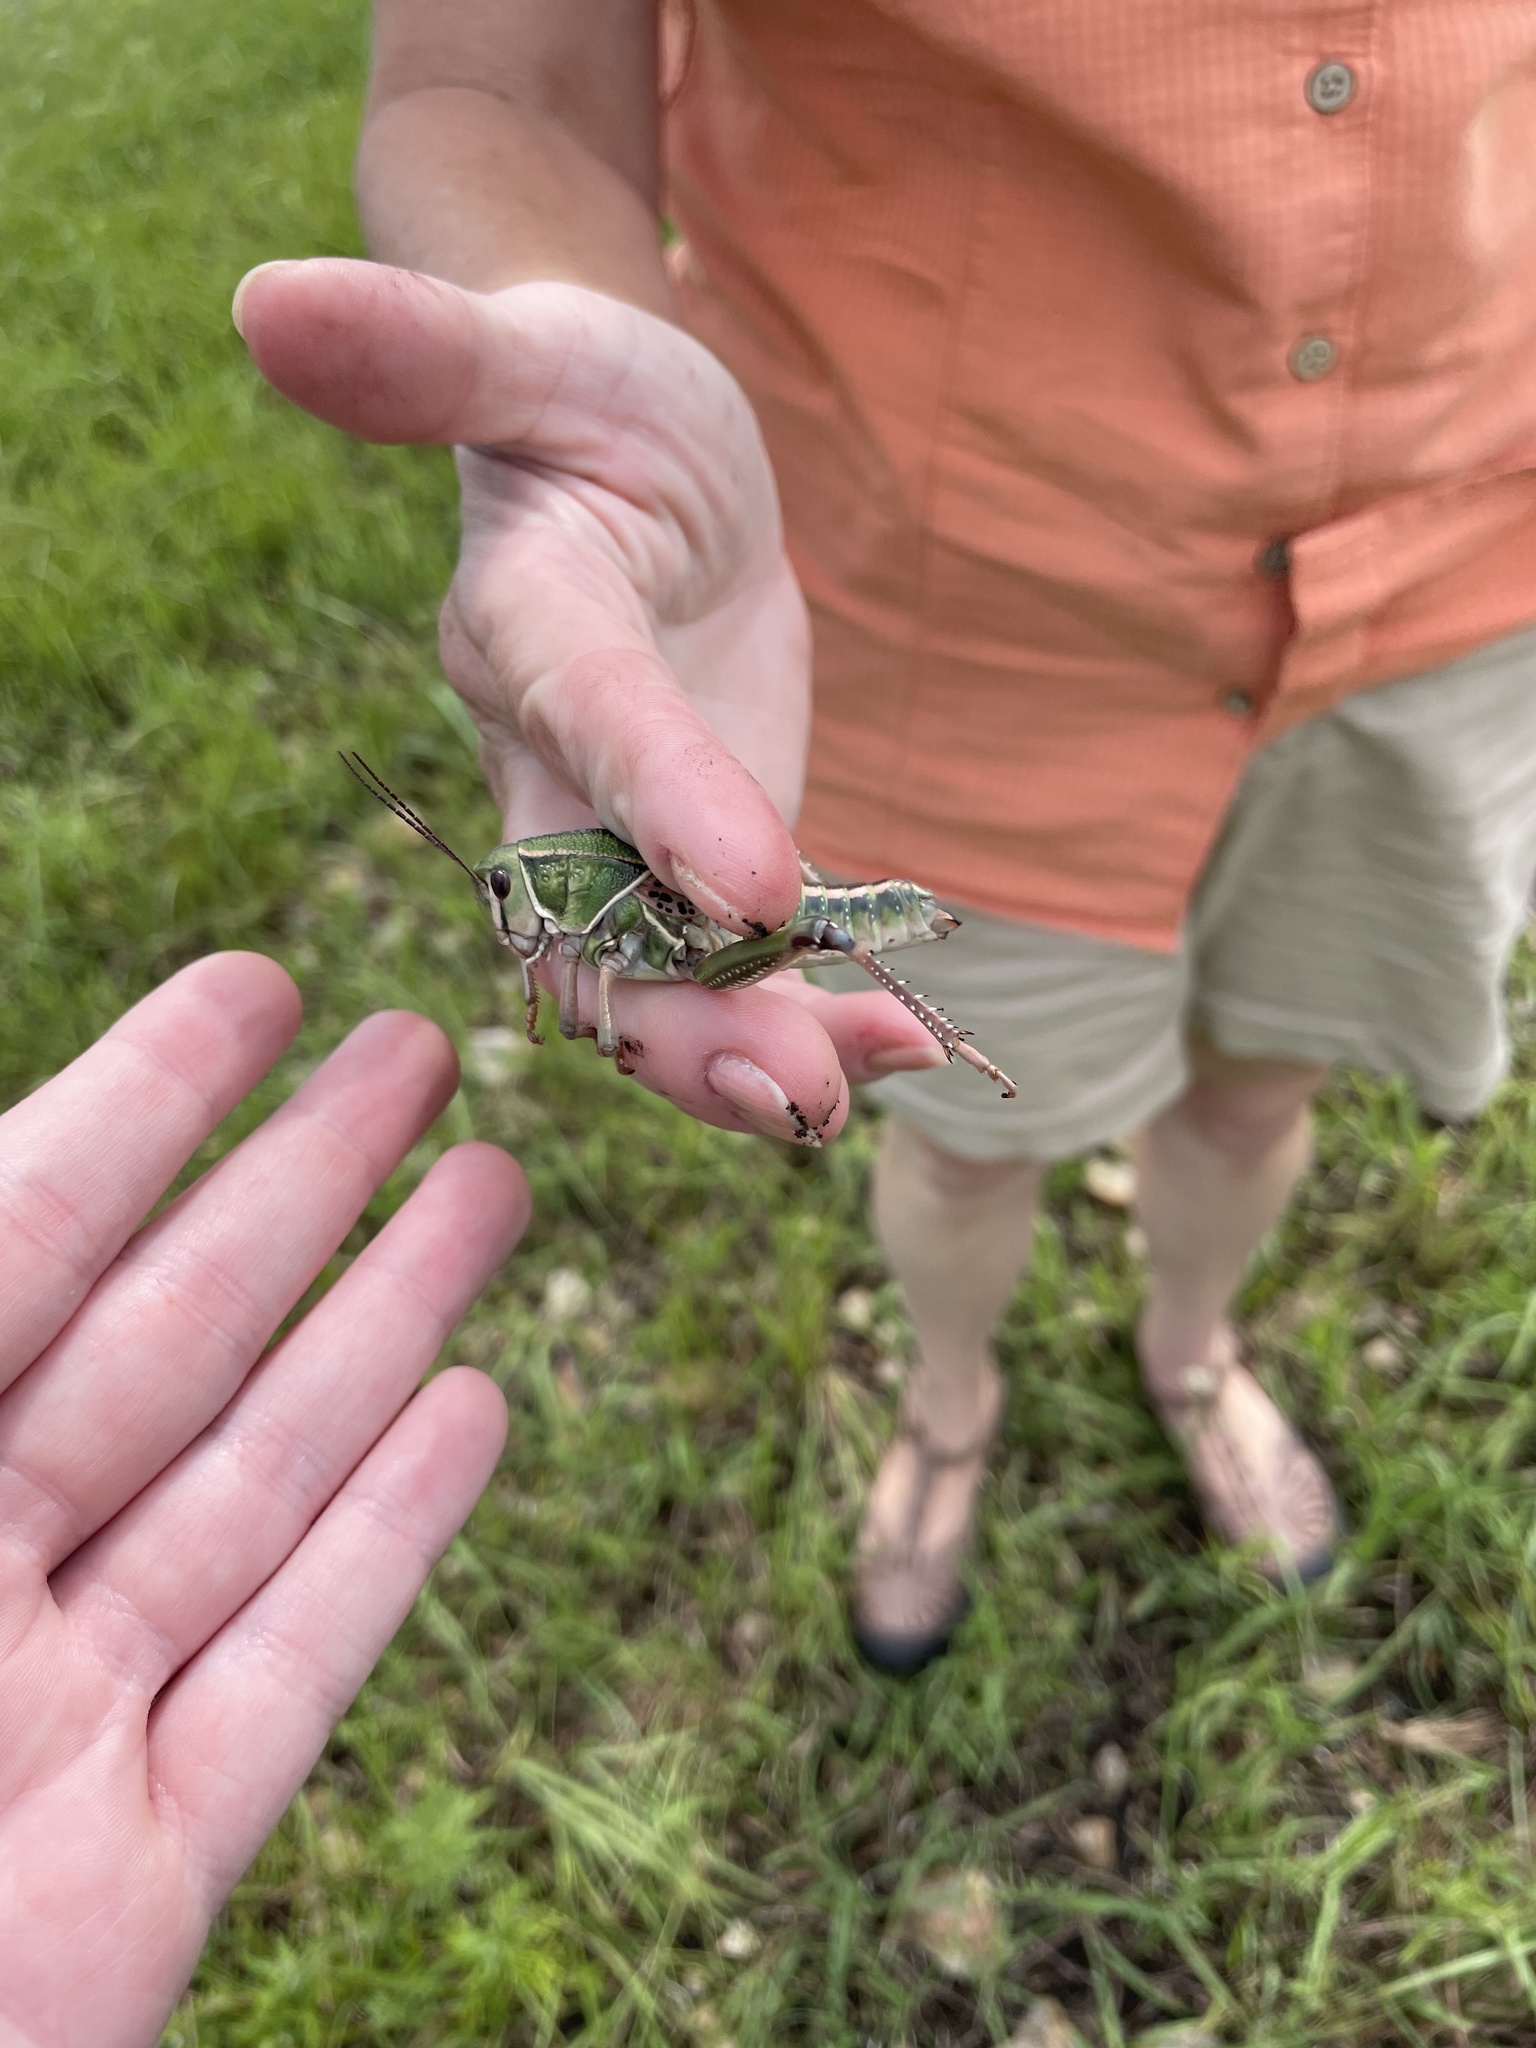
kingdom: Animalia
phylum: Arthropoda
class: Insecta
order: Orthoptera
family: Romaleidae
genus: Brachystola
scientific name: Brachystola magna
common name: Plains lubber grasshopper
